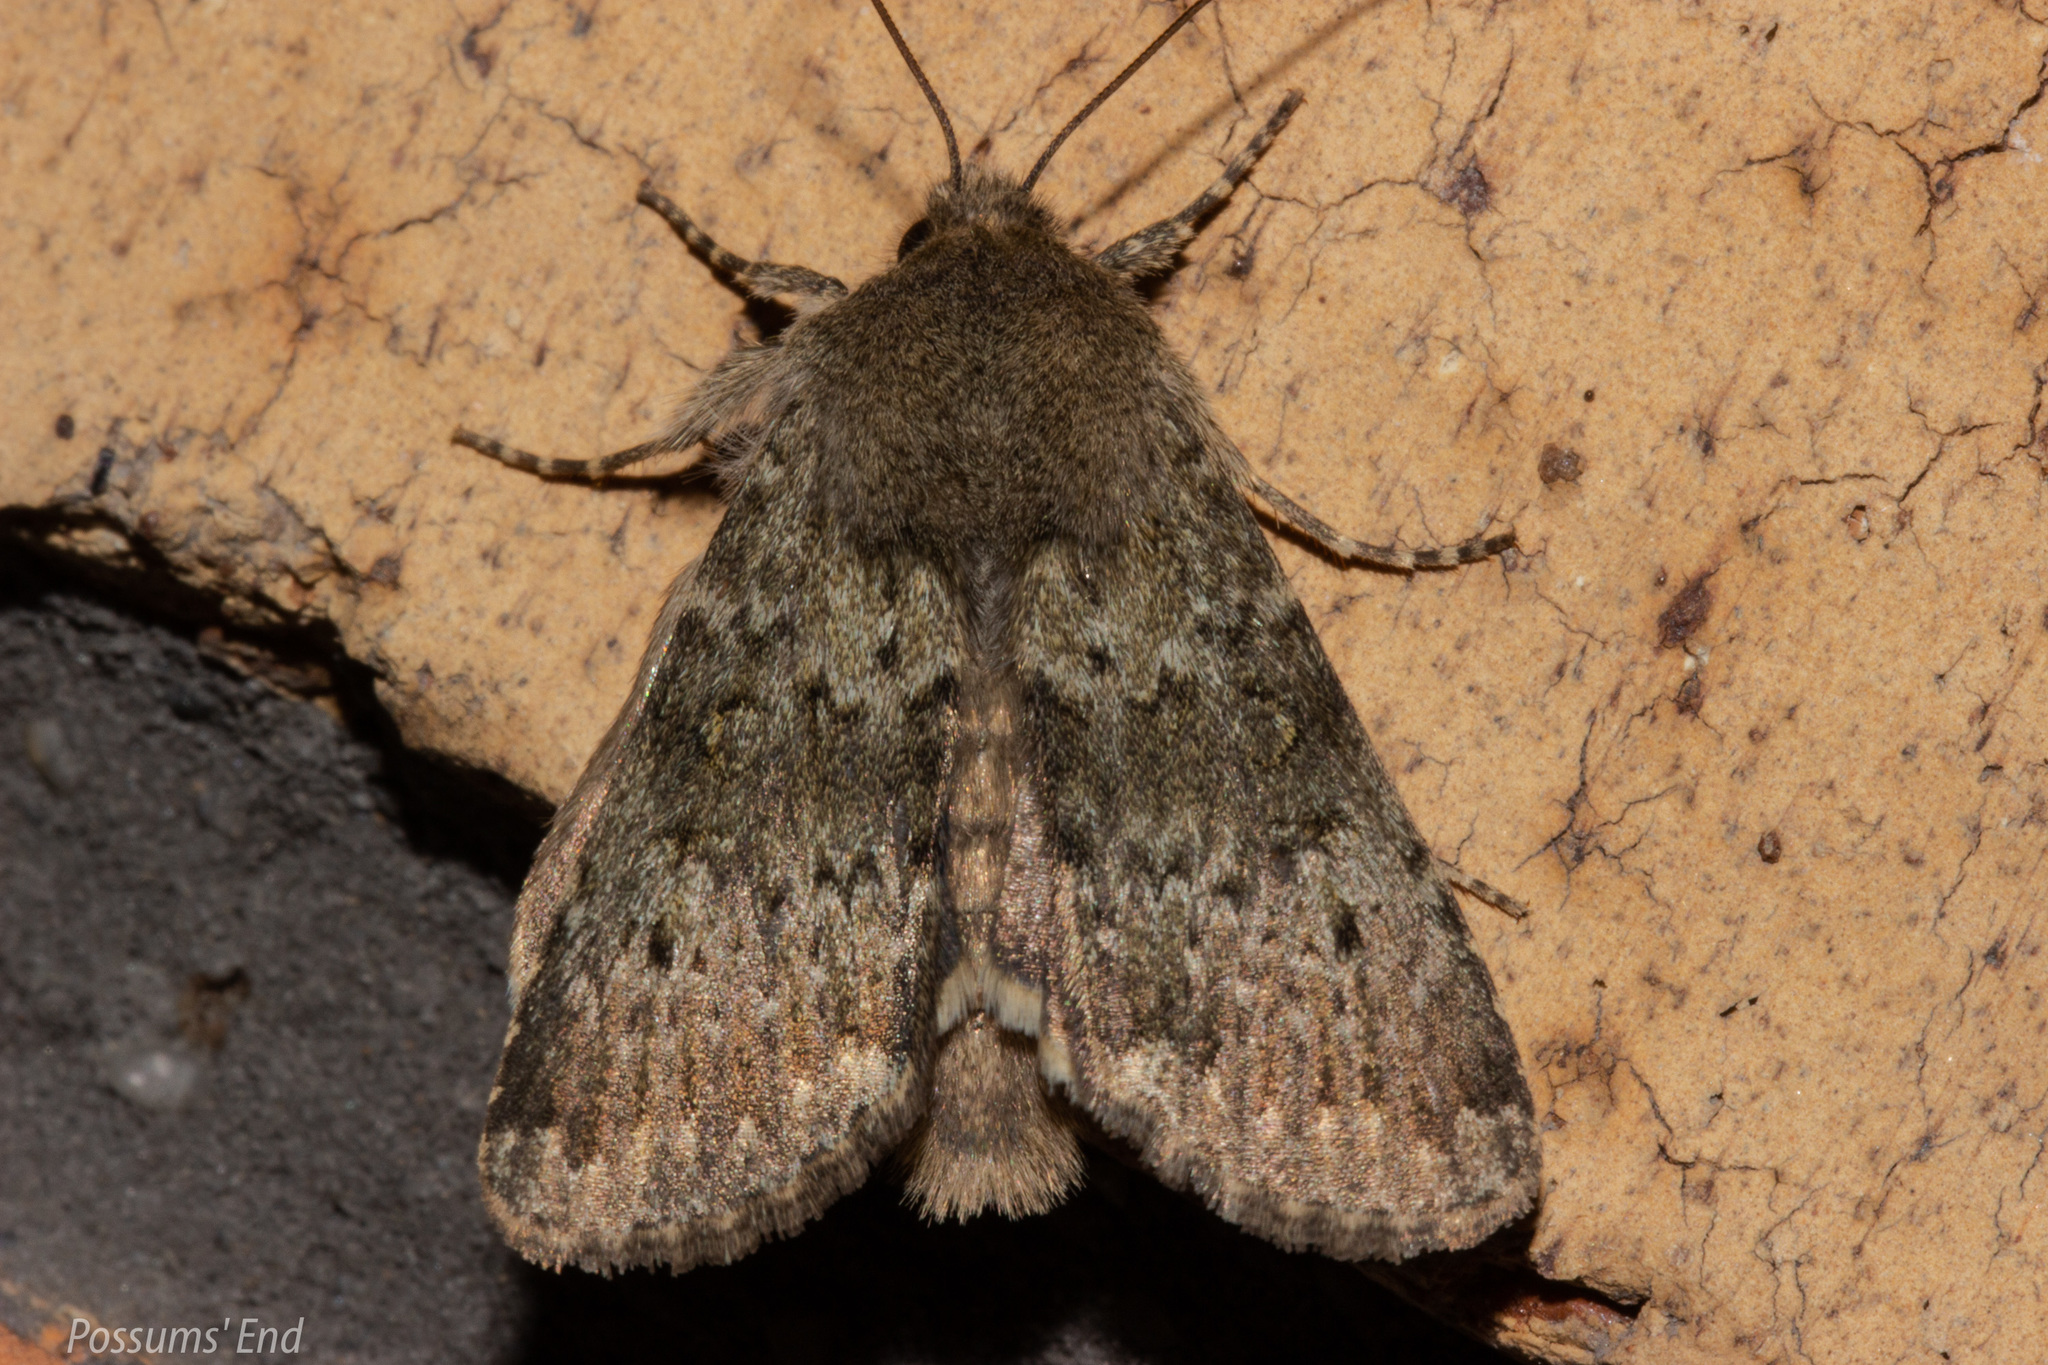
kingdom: Animalia
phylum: Arthropoda
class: Insecta
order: Lepidoptera
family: Noctuidae
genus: Ichneutica
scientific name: Ichneutica moderata
